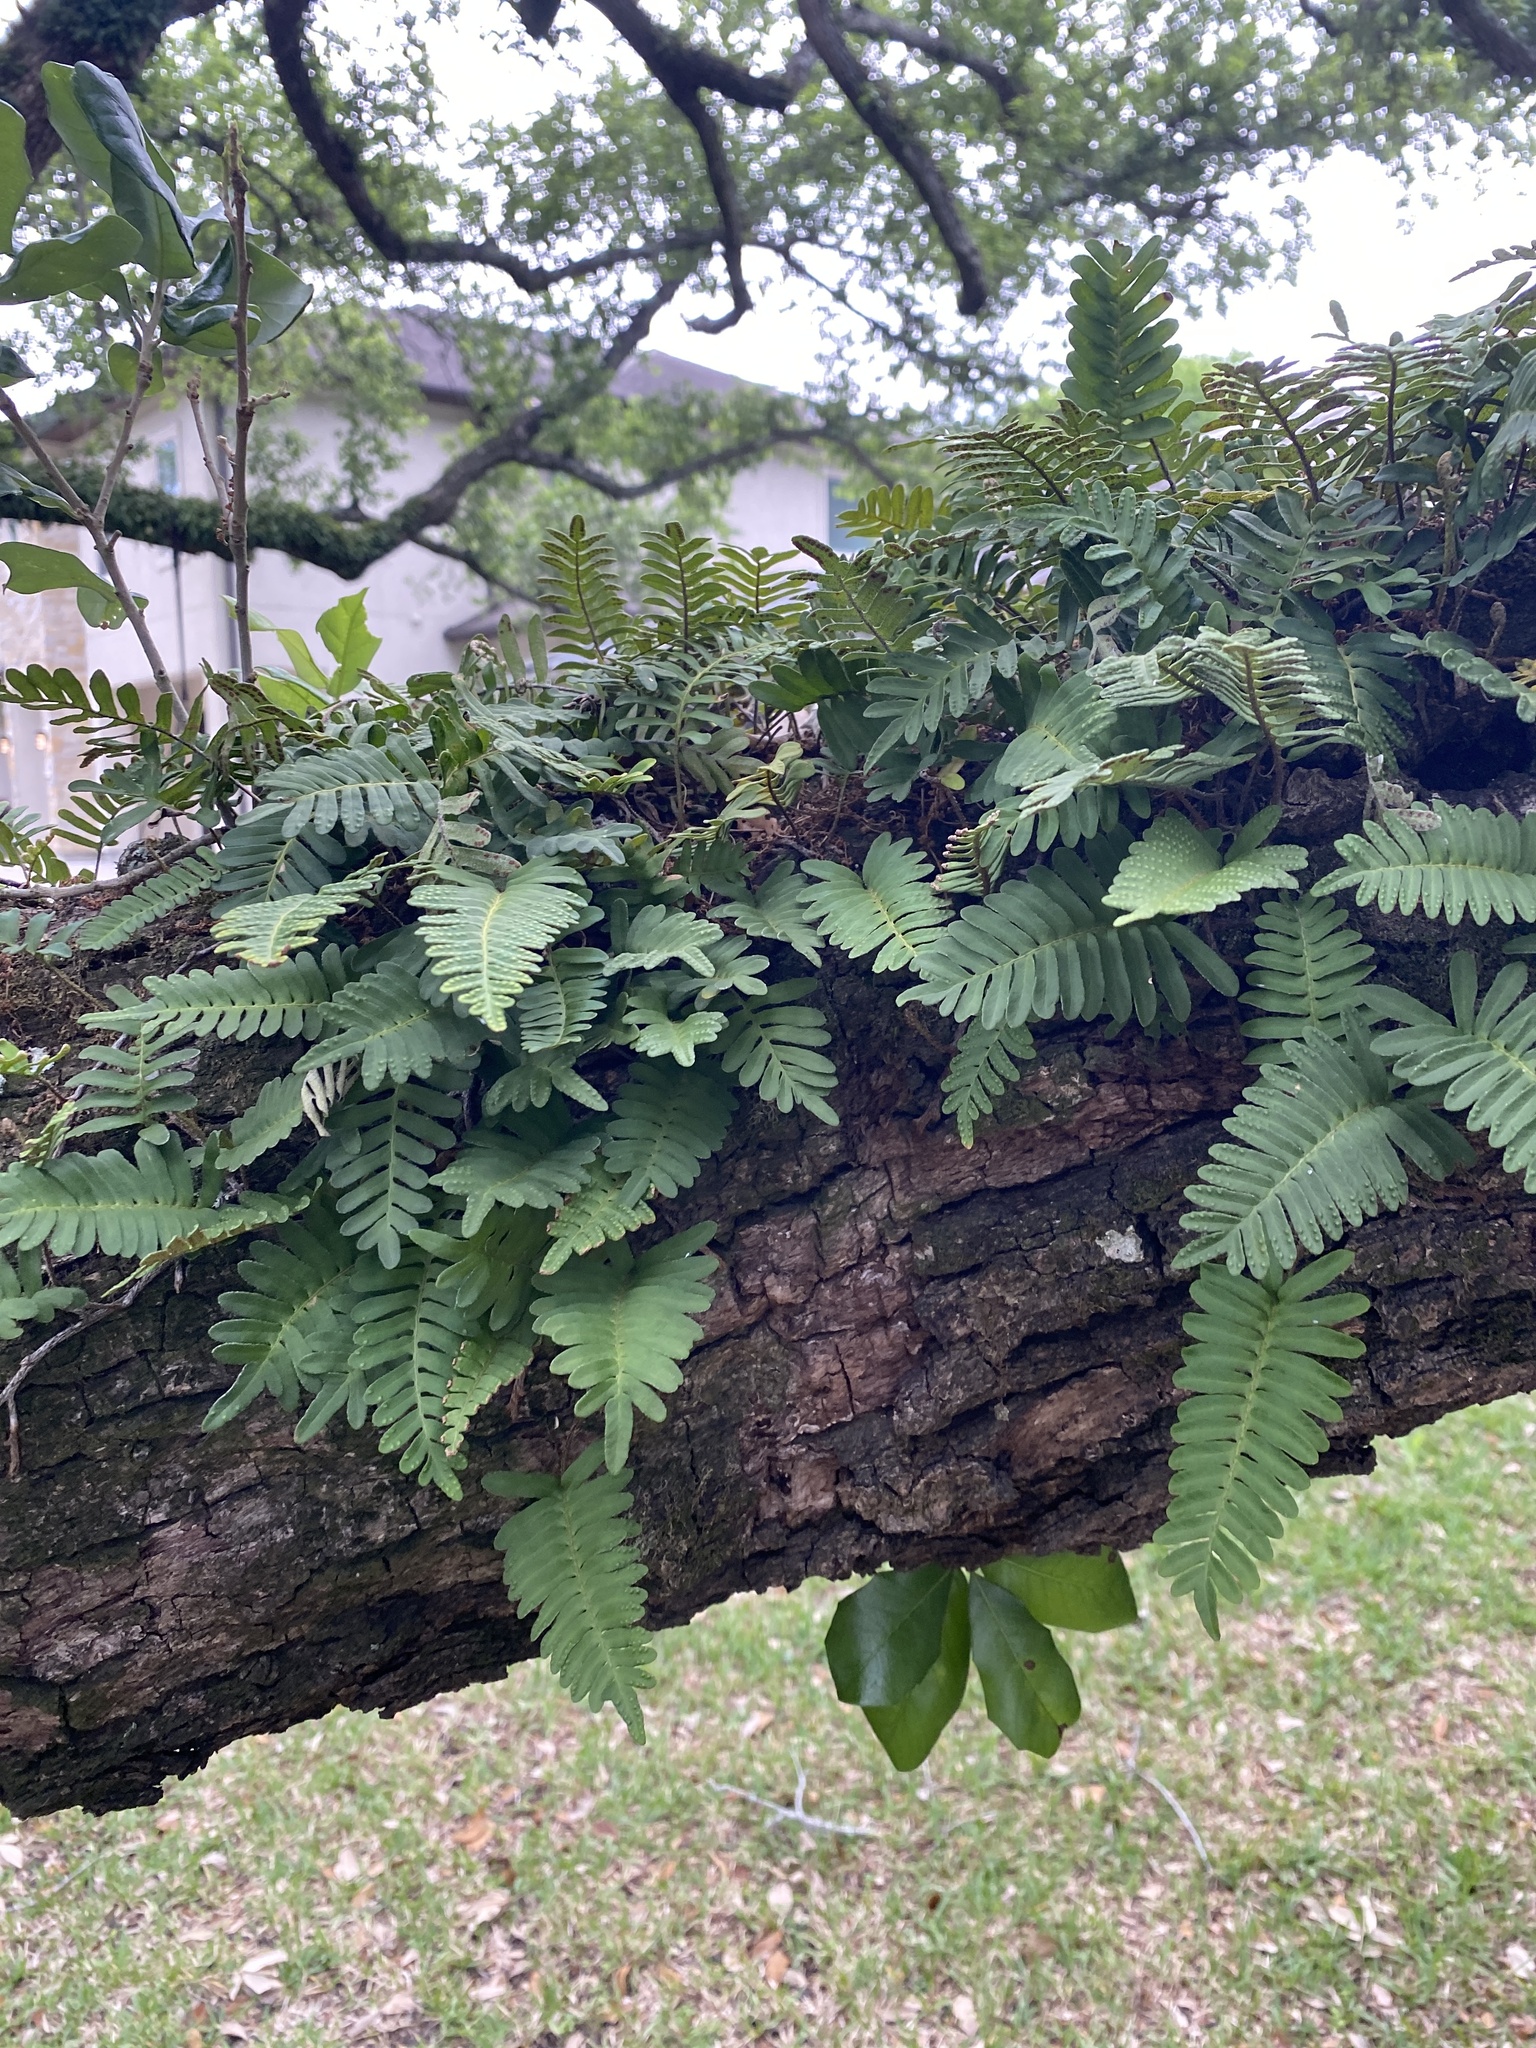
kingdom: Plantae
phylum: Tracheophyta
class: Polypodiopsida
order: Polypodiales
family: Polypodiaceae
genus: Pleopeltis
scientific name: Pleopeltis michauxiana
